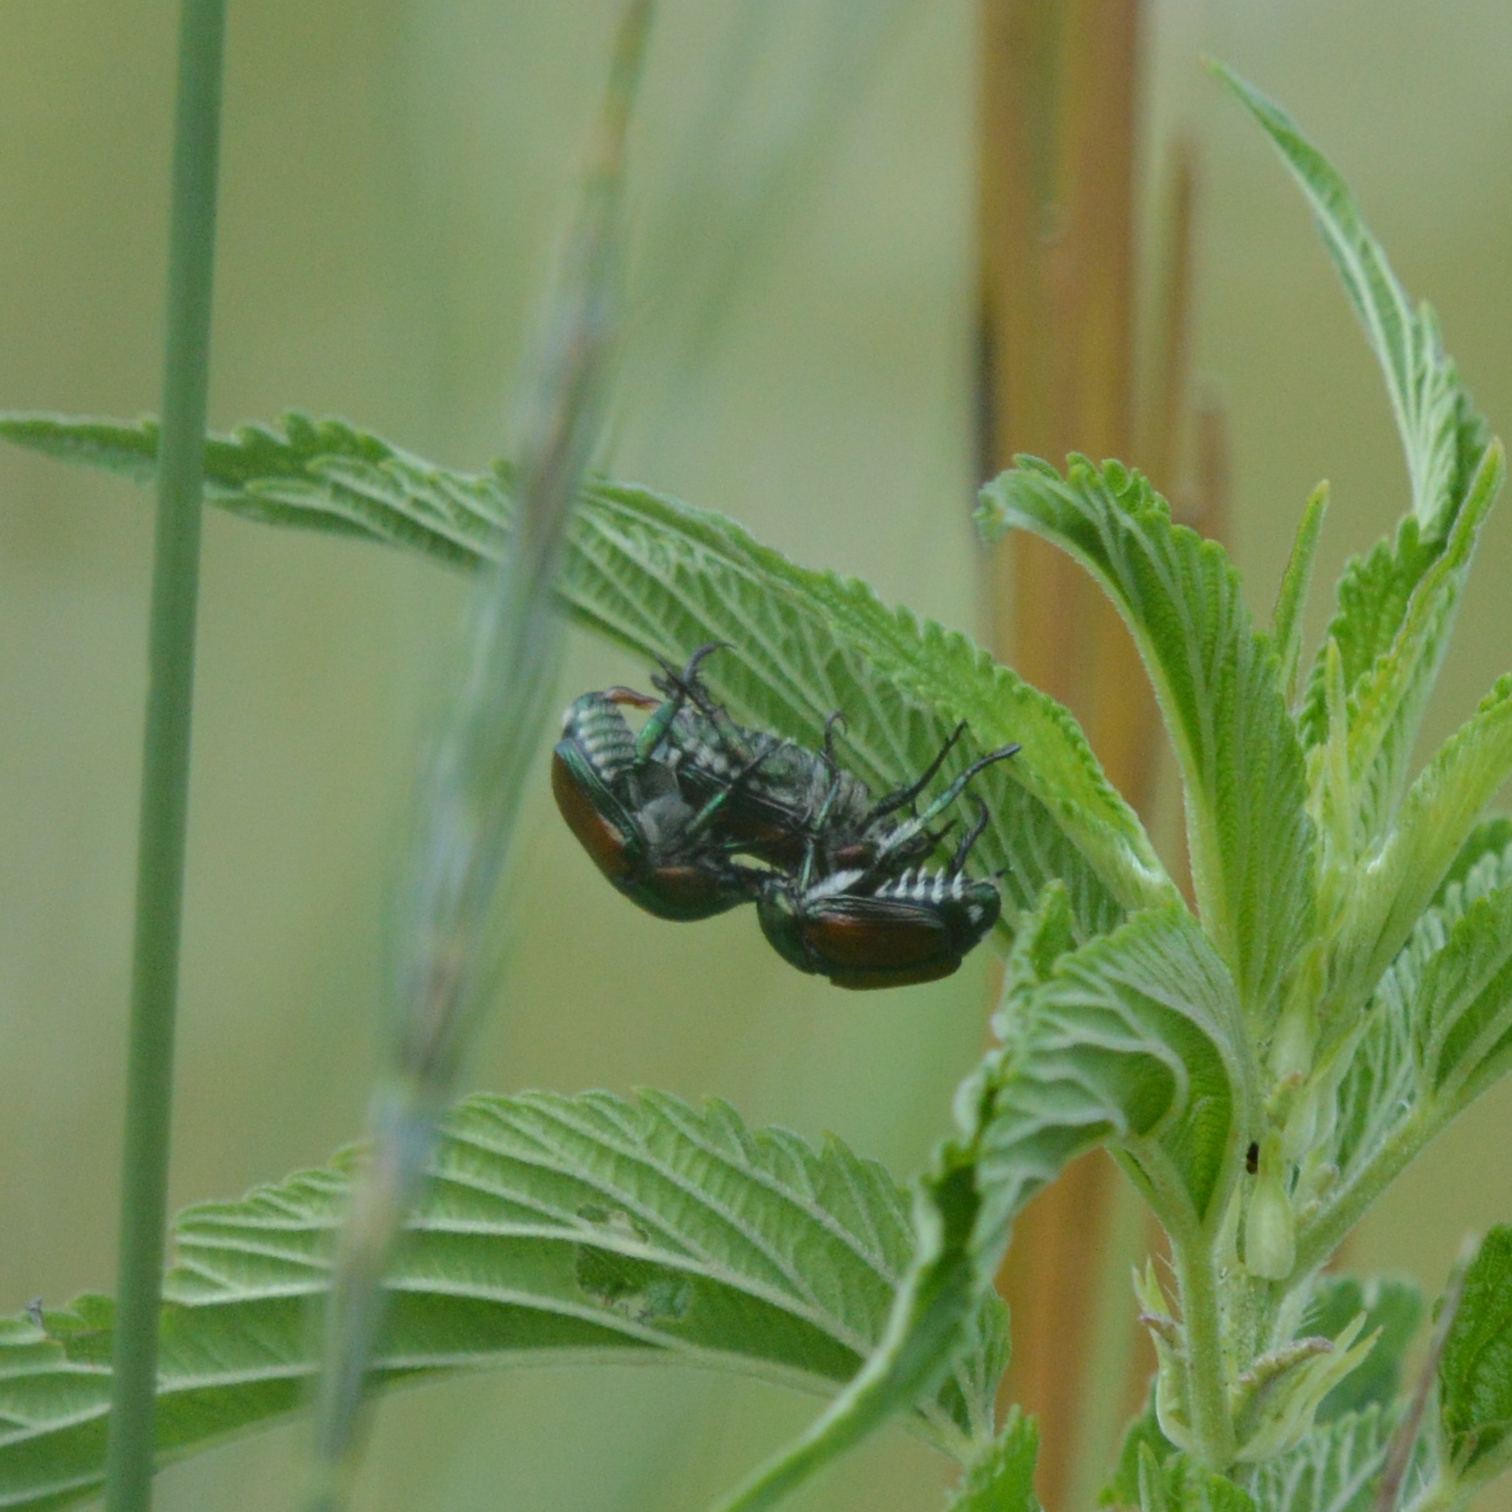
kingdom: Animalia
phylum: Arthropoda
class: Insecta
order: Coleoptera
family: Scarabaeidae
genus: Popillia
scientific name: Popillia japonica
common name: Japanese beetle
